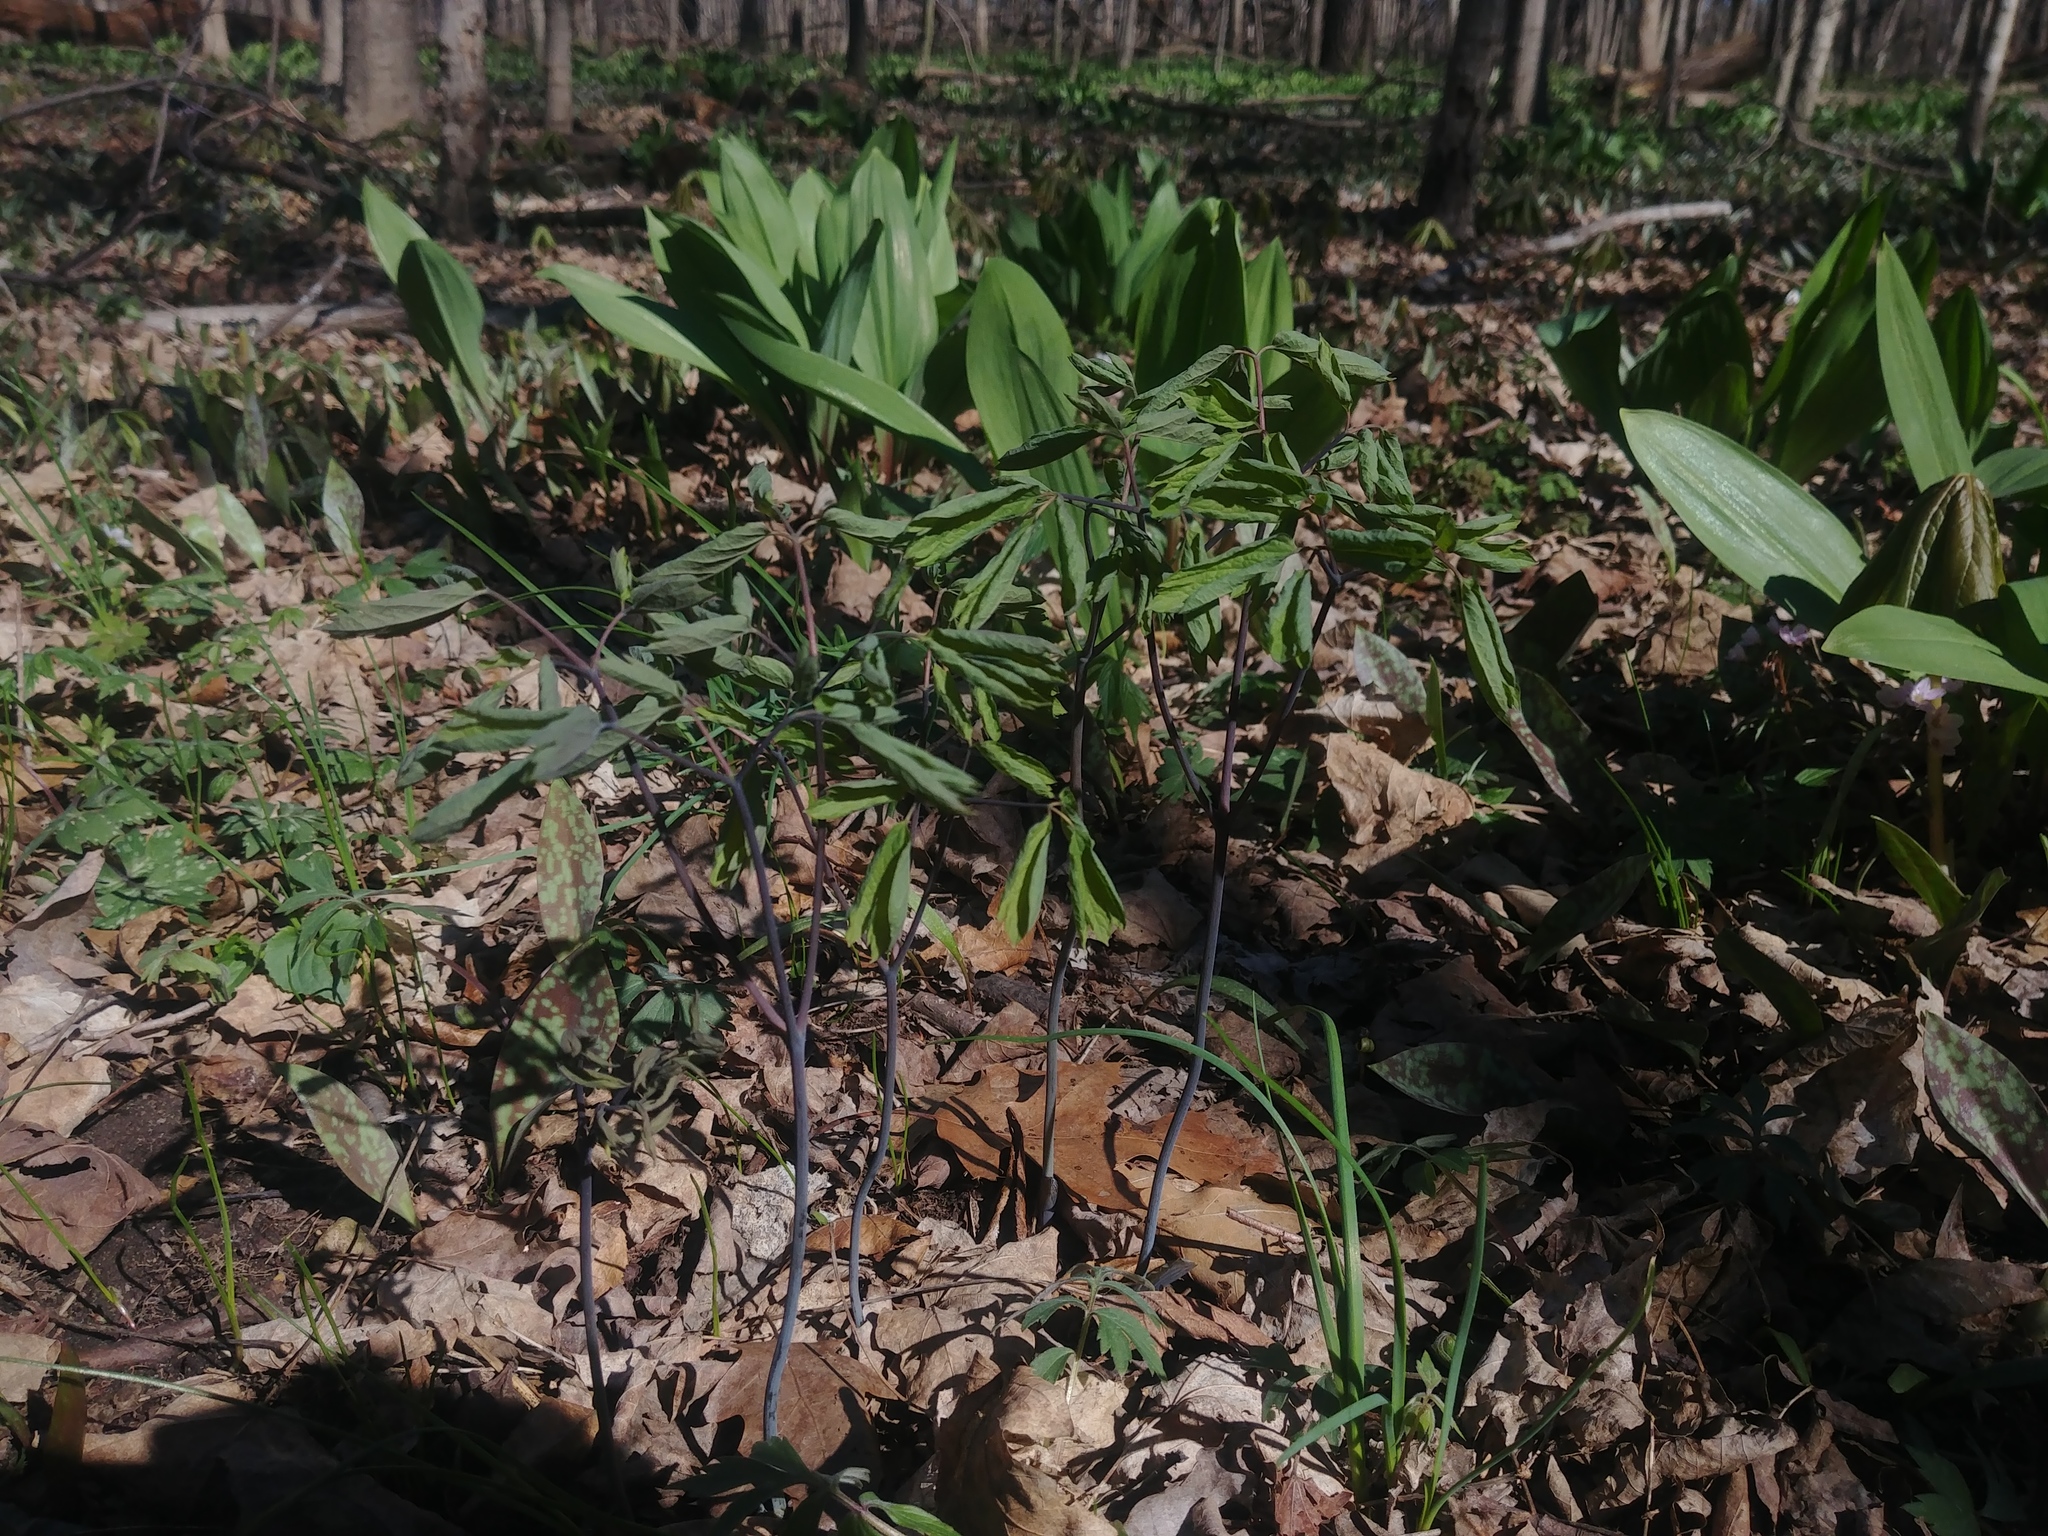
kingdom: Plantae
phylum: Tracheophyta
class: Magnoliopsida
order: Ranunculales
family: Berberidaceae
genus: Caulophyllum
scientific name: Caulophyllum thalictroides
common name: Blue cohosh
